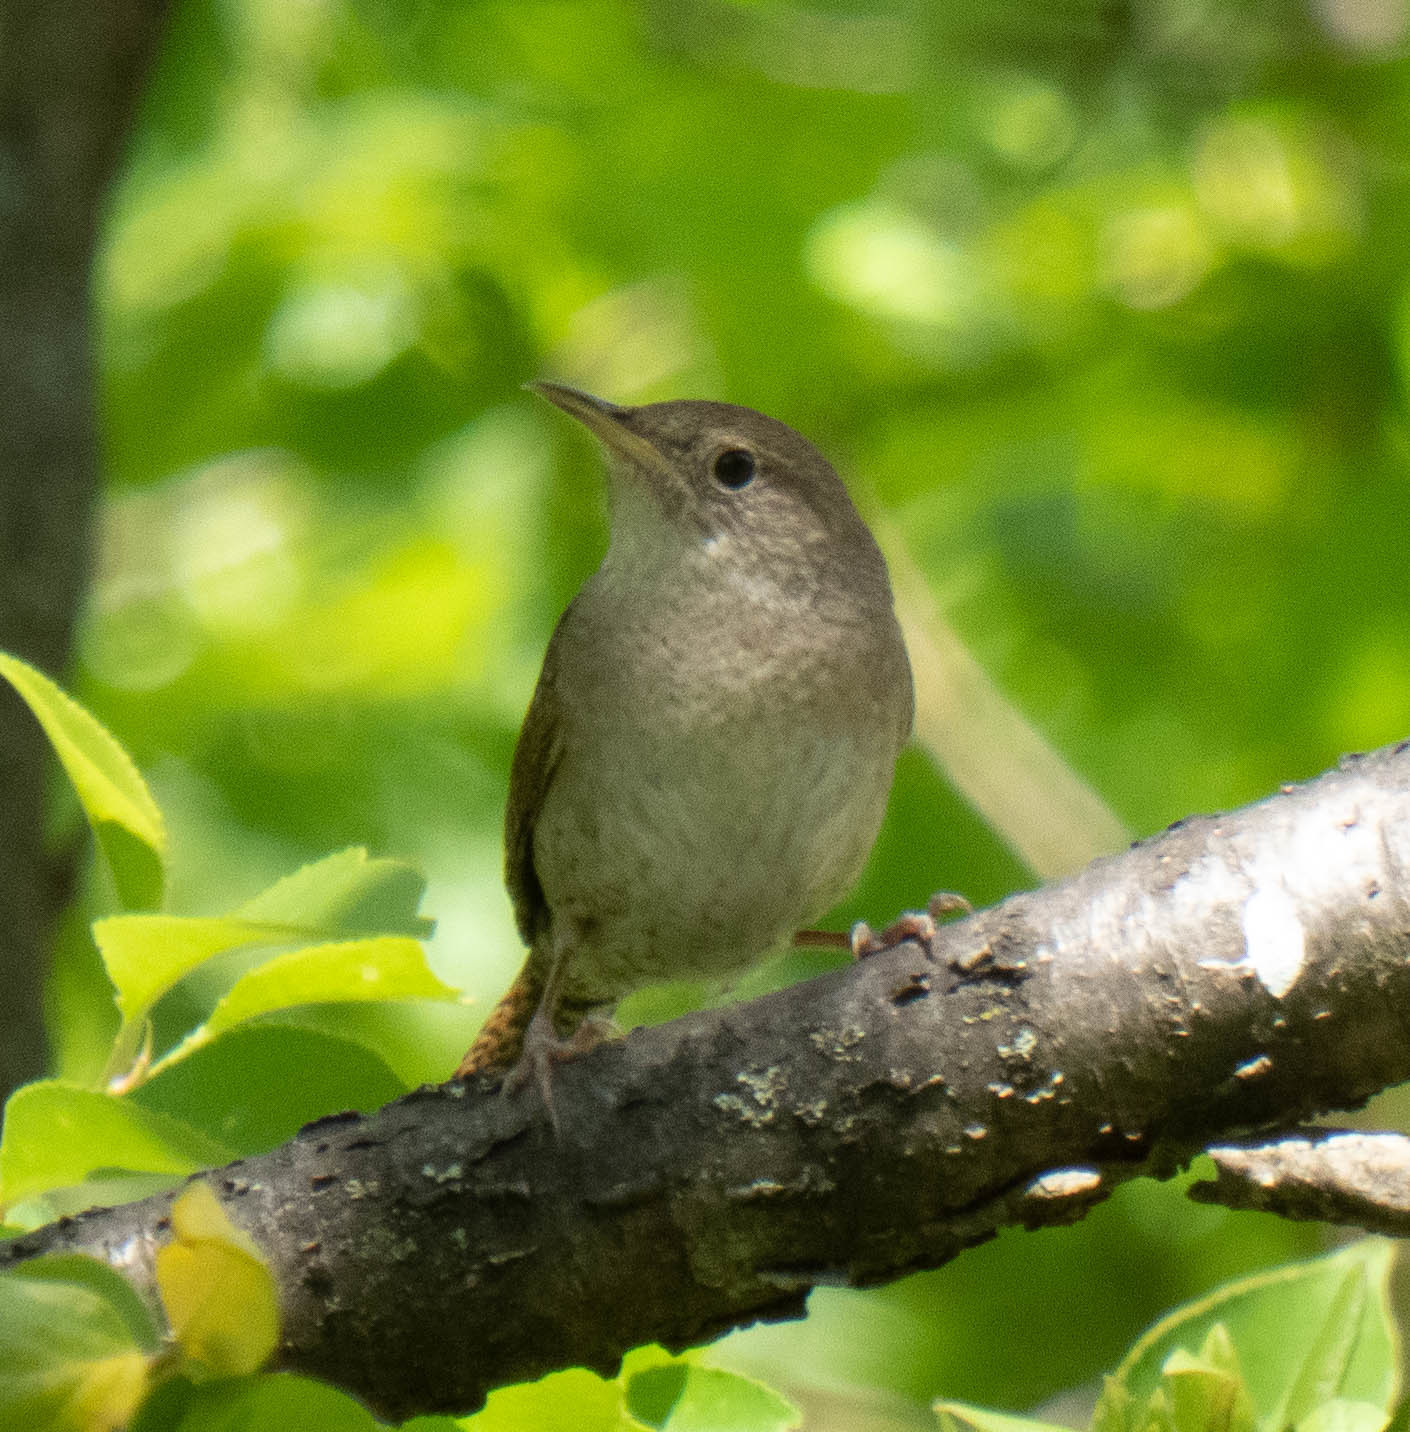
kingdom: Animalia
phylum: Chordata
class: Aves
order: Passeriformes
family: Troglodytidae
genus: Troglodytes
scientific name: Troglodytes aedon
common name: House wren
